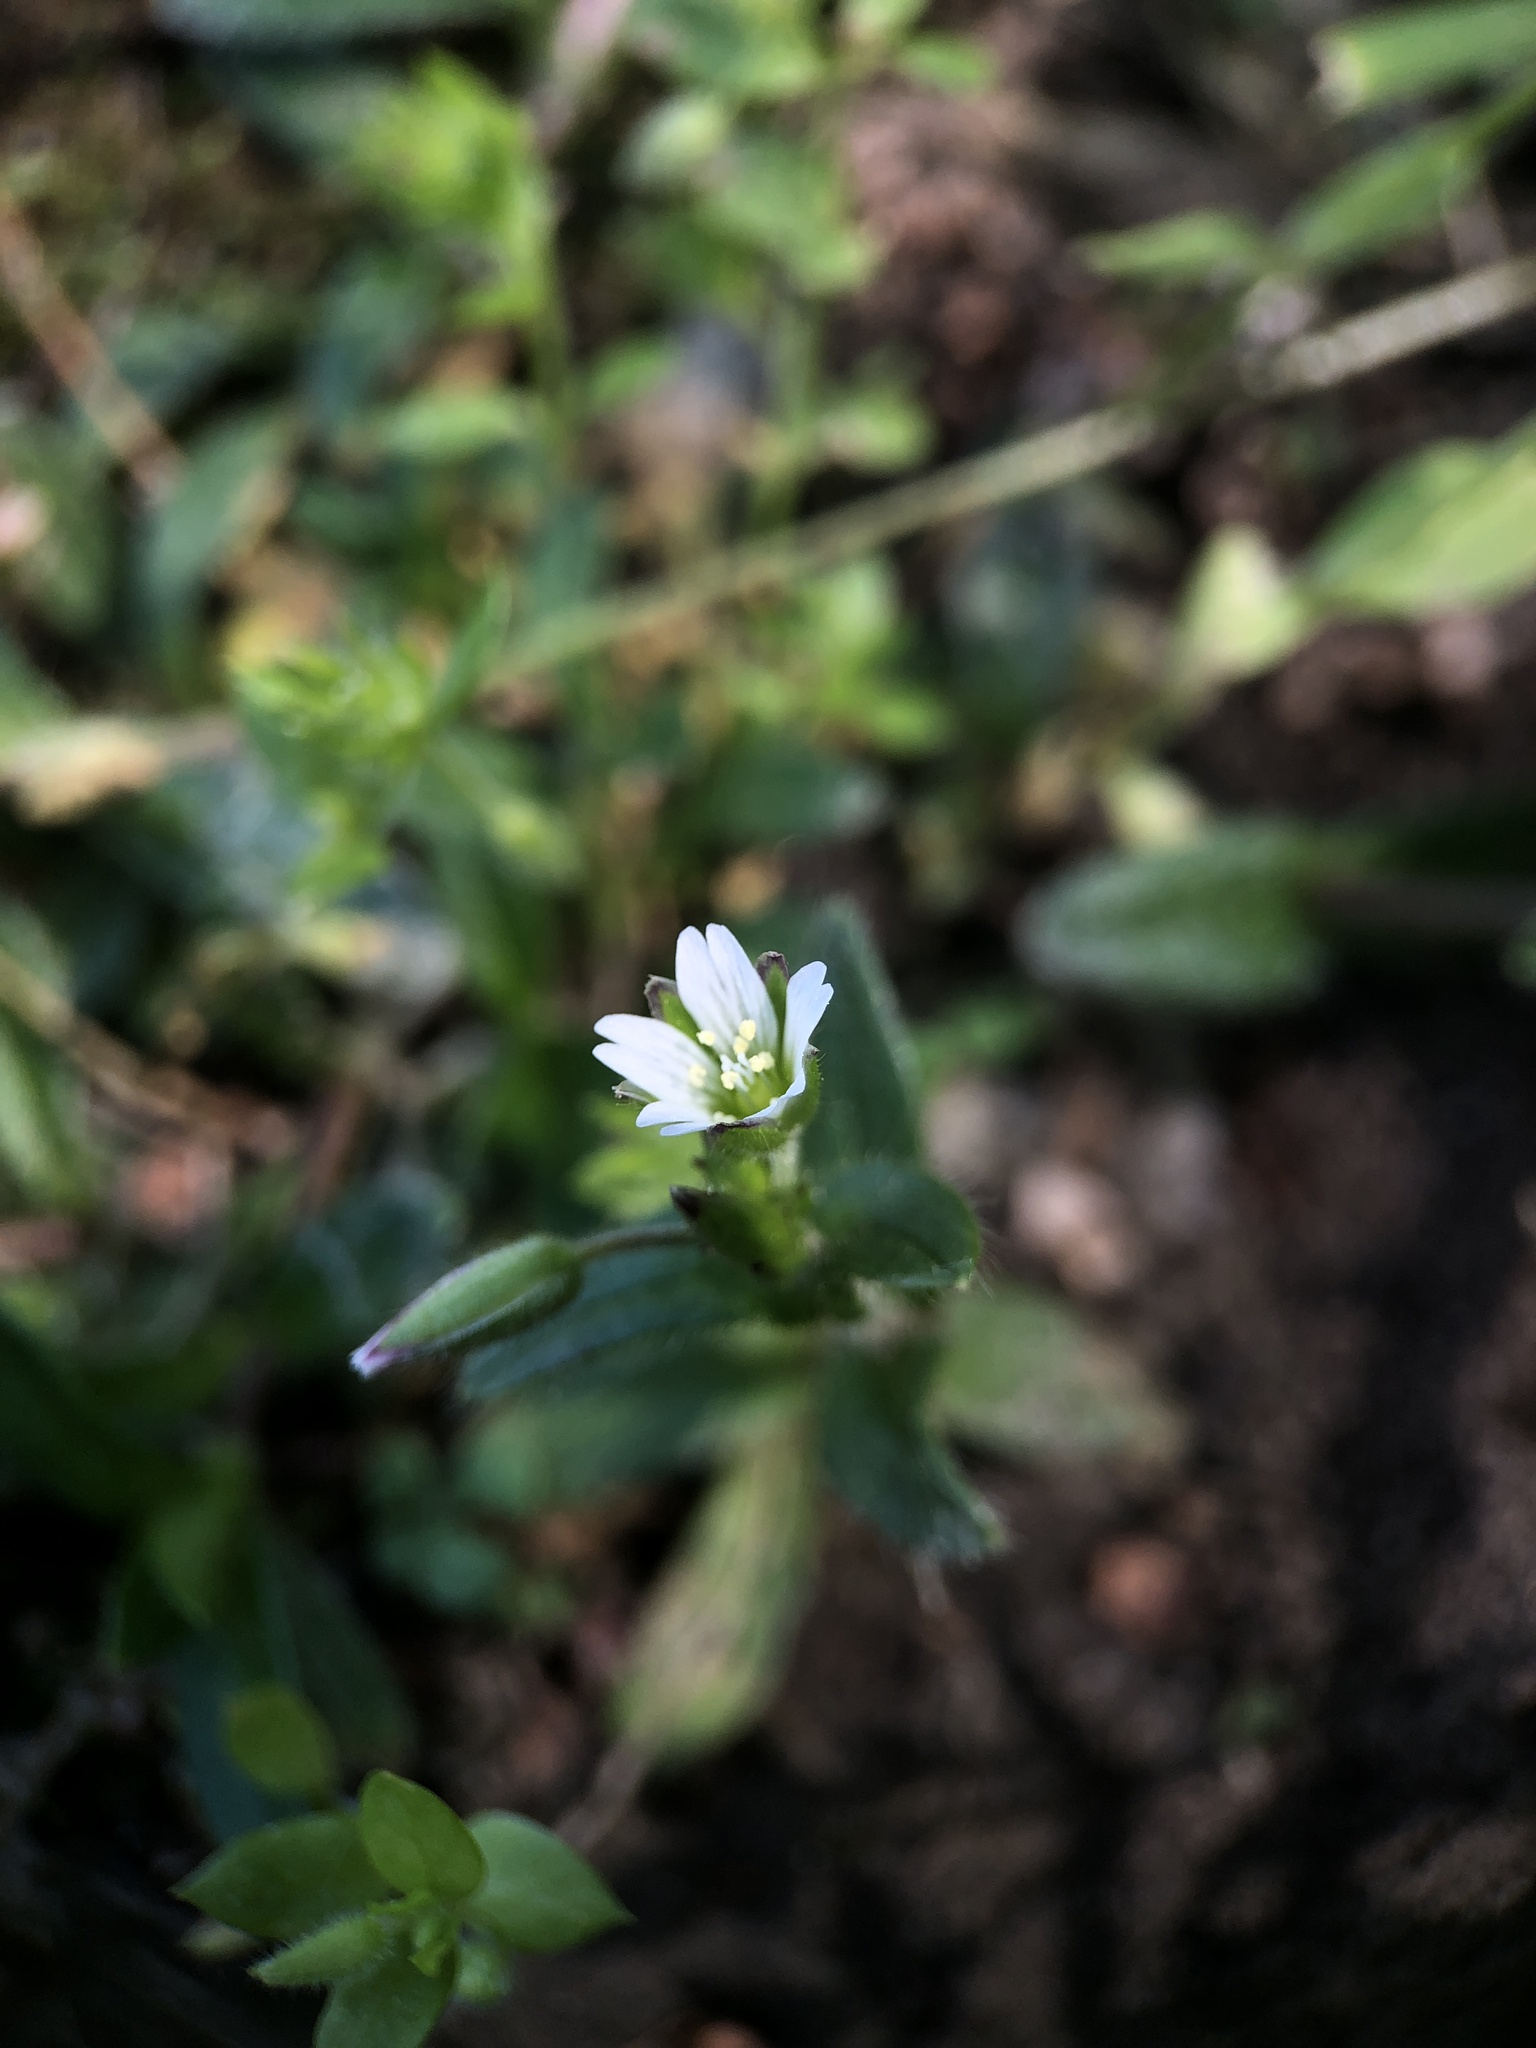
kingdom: Plantae
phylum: Tracheophyta
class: Magnoliopsida
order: Caryophyllales
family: Caryophyllaceae
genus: Cerastium
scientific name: Cerastium holosteoides
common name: Big chickweed
